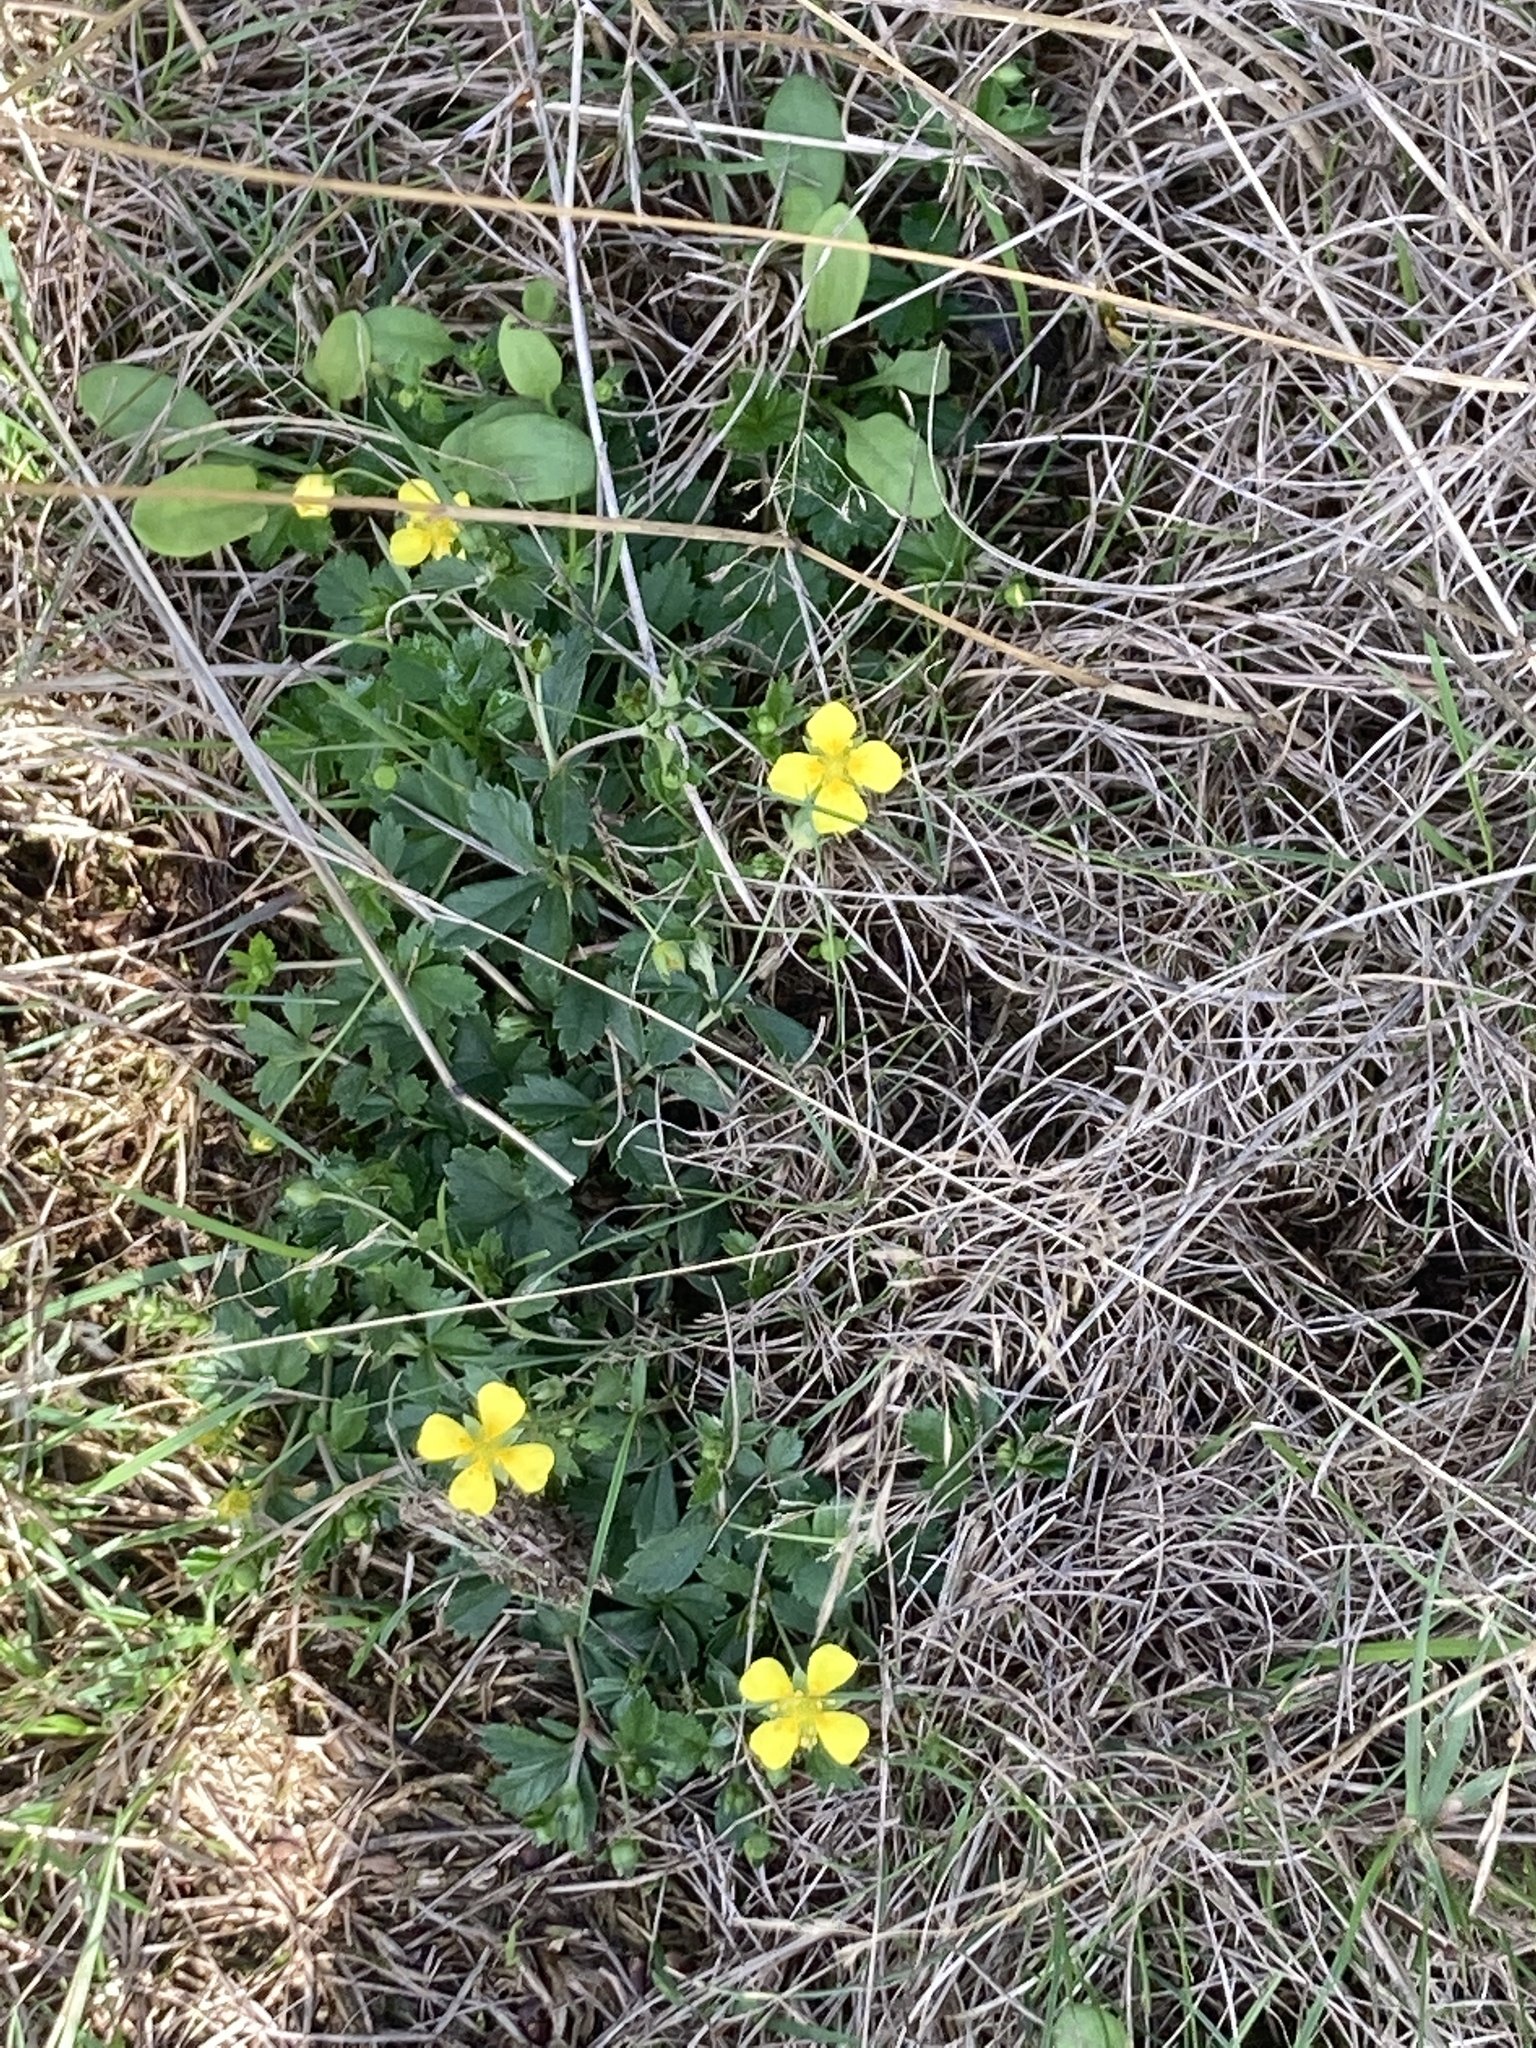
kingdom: Plantae
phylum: Tracheophyta
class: Magnoliopsida
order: Rosales
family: Rosaceae
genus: Potentilla
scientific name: Potentilla erecta
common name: Tormentil
